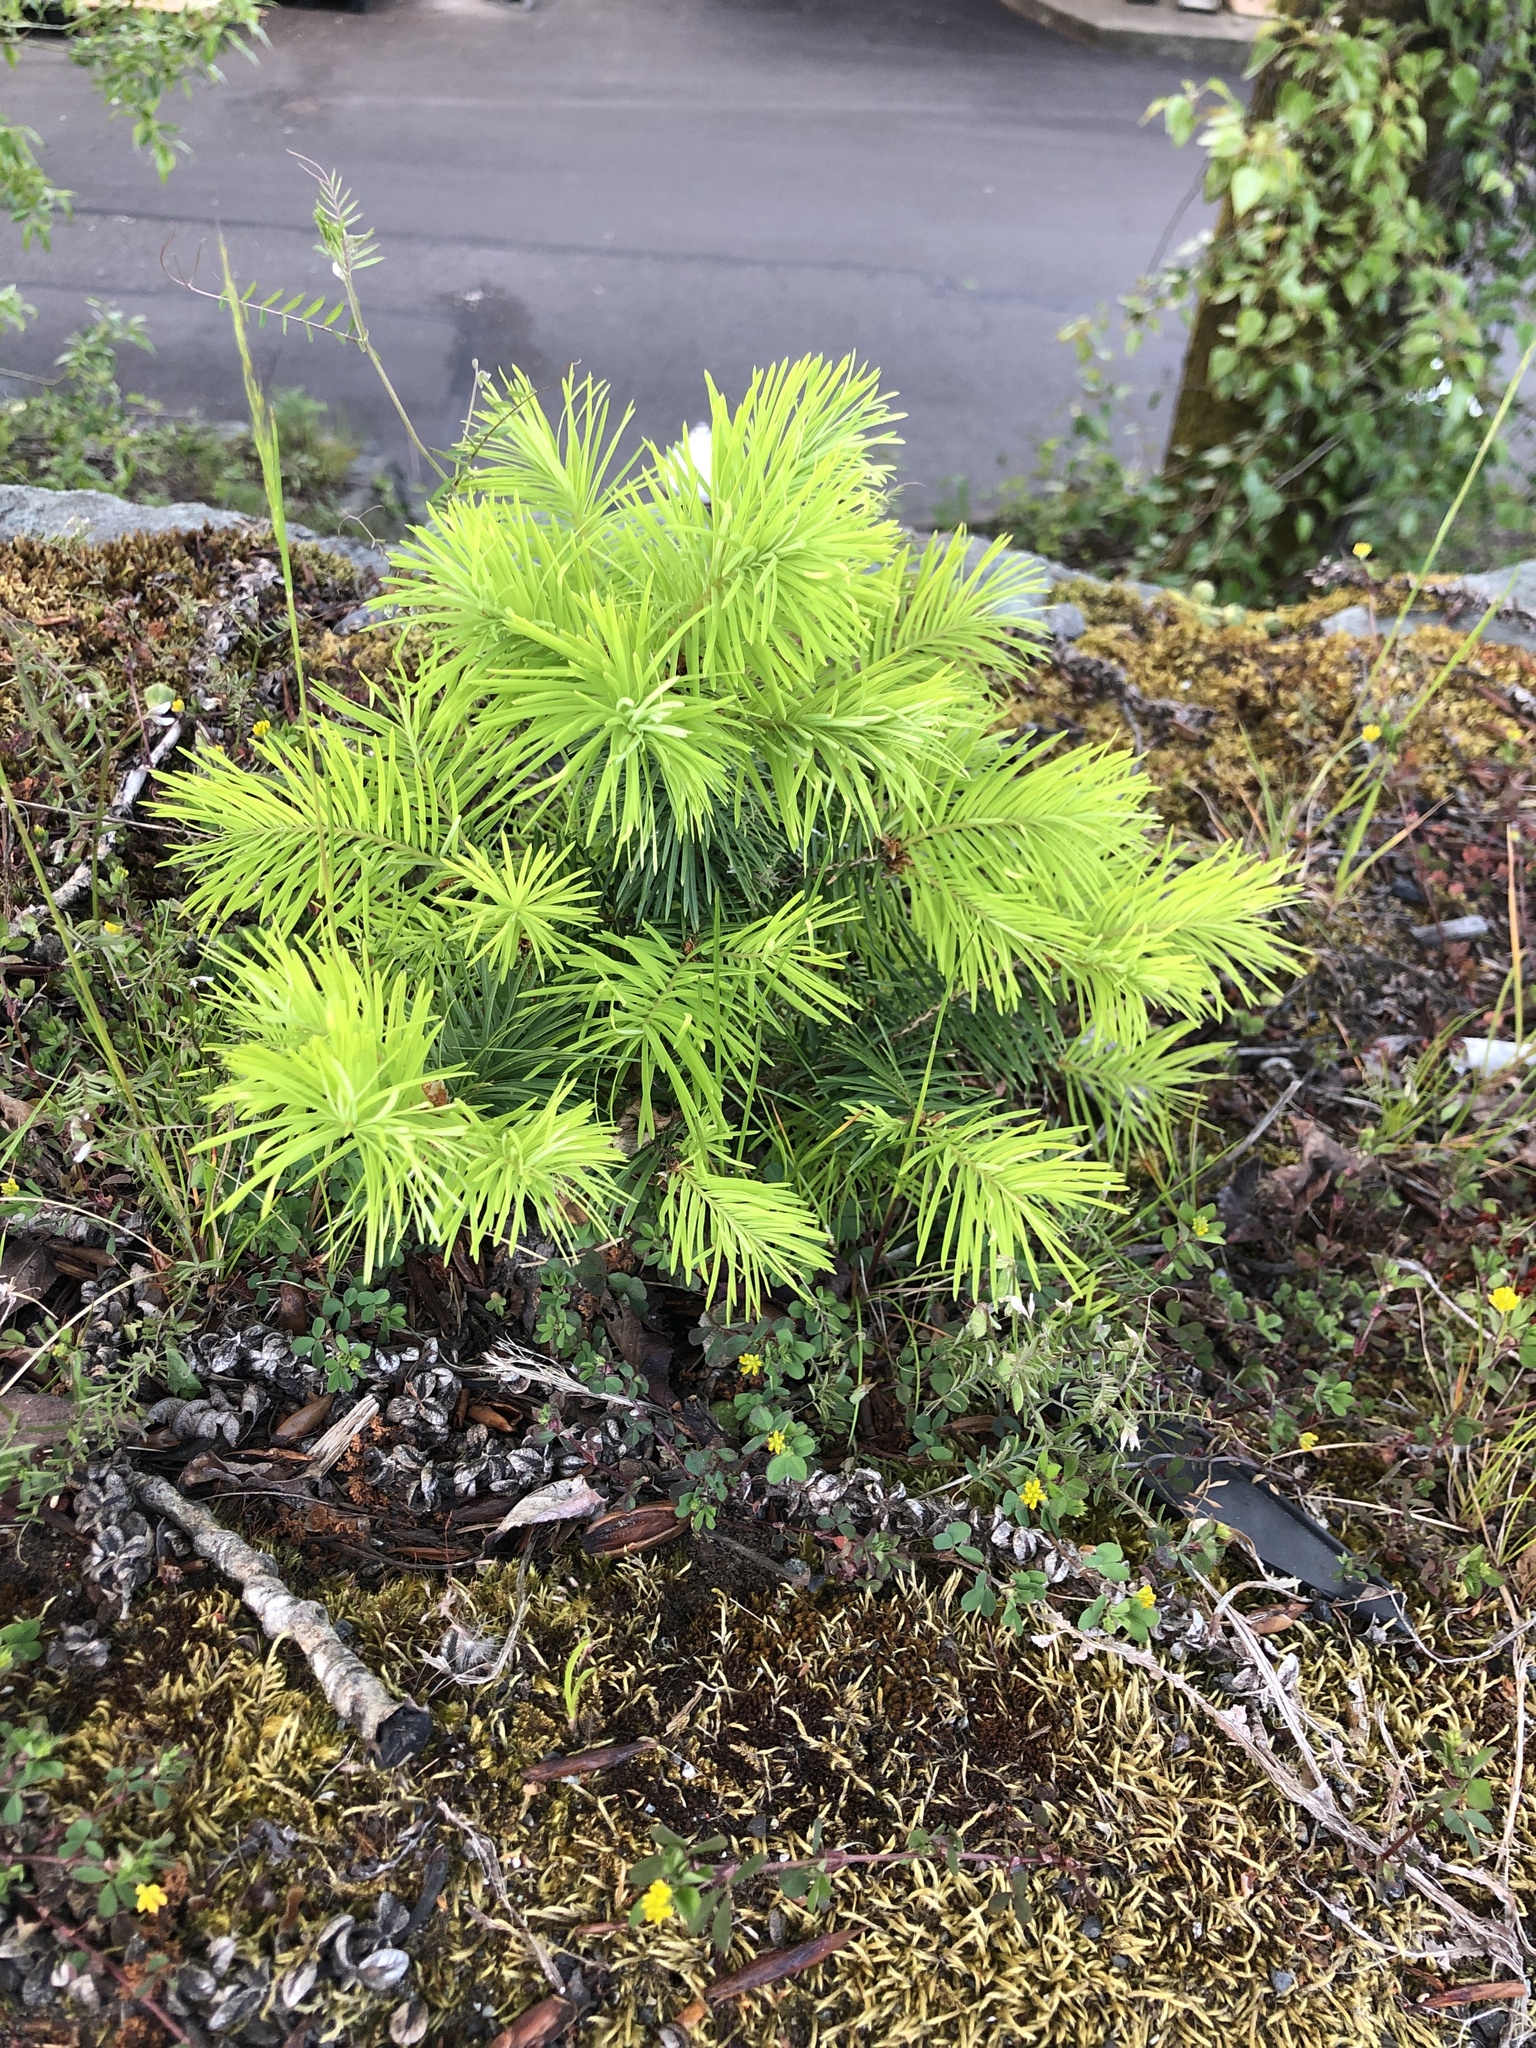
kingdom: Plantae
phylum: Tracheophyta
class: Pinopsida
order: Pinales
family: Pinaceae
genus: Pseudotsuga
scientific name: Pseudotsuga menziesii
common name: Douglas fir
